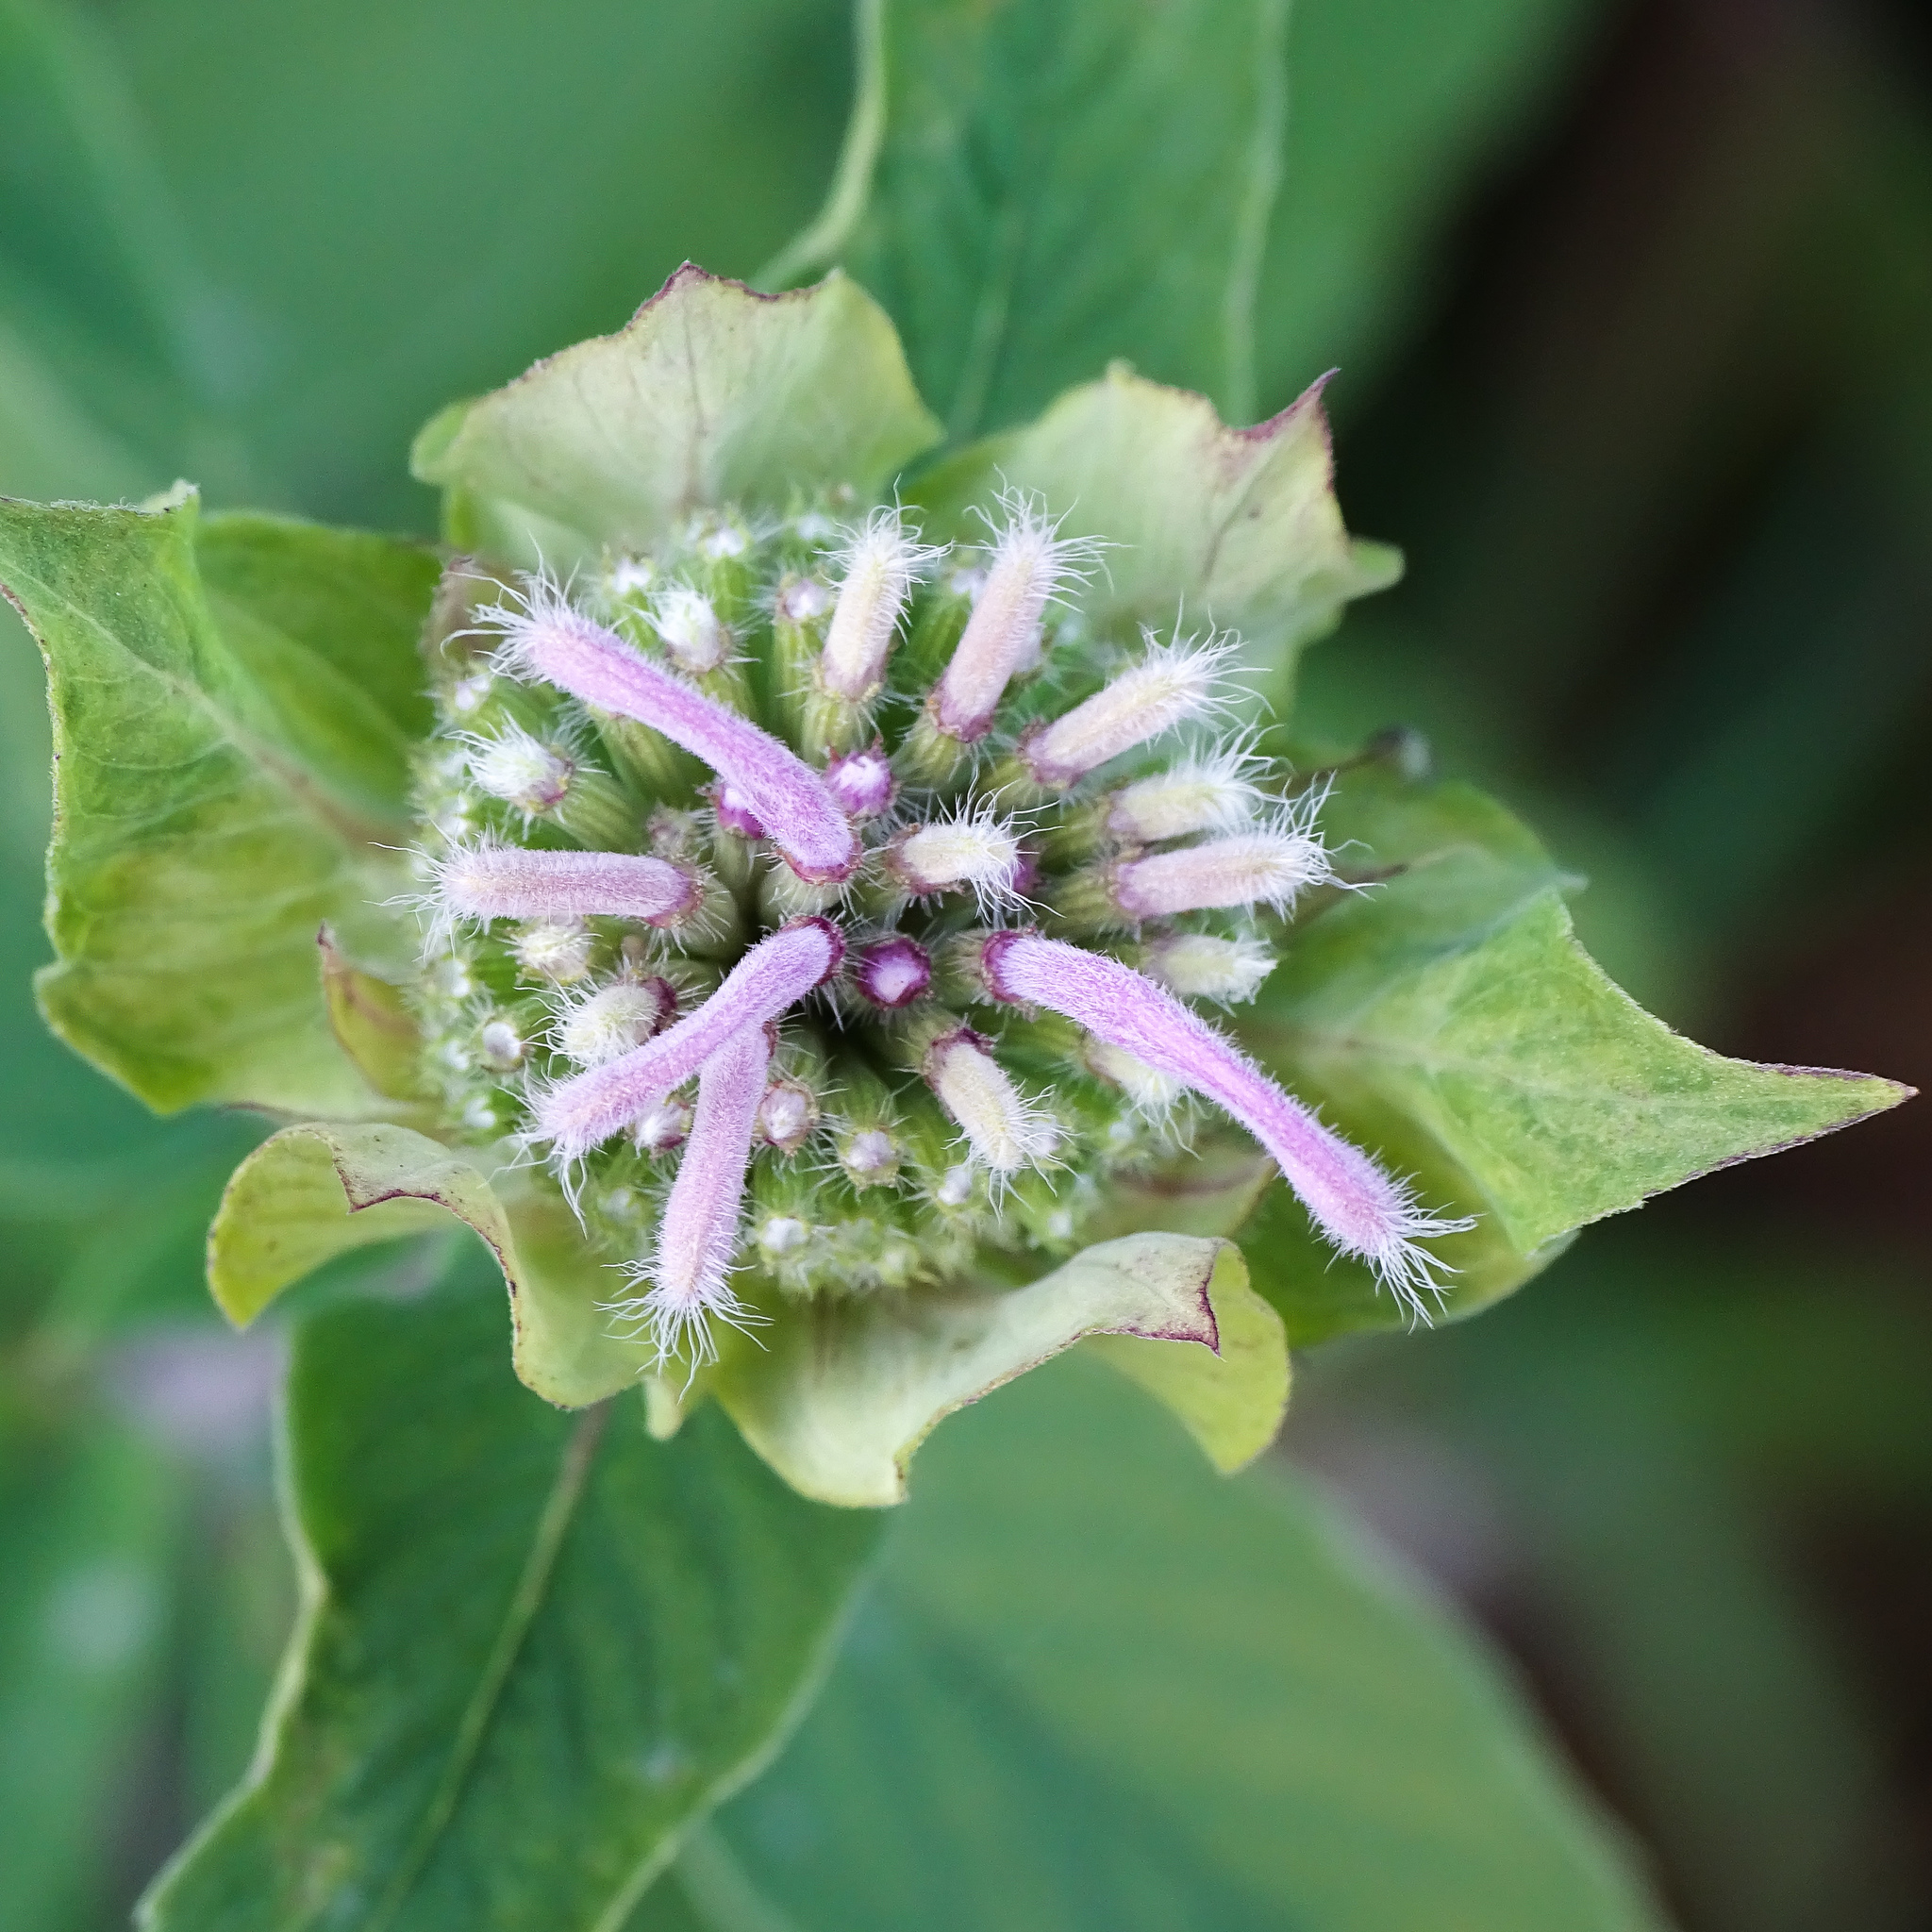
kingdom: Plantae
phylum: Tracheophyta
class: Magnoliopsida
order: Lamiales
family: Lamiaceae
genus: Monarda
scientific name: Monarda fistulosa
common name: Purple beebalm
